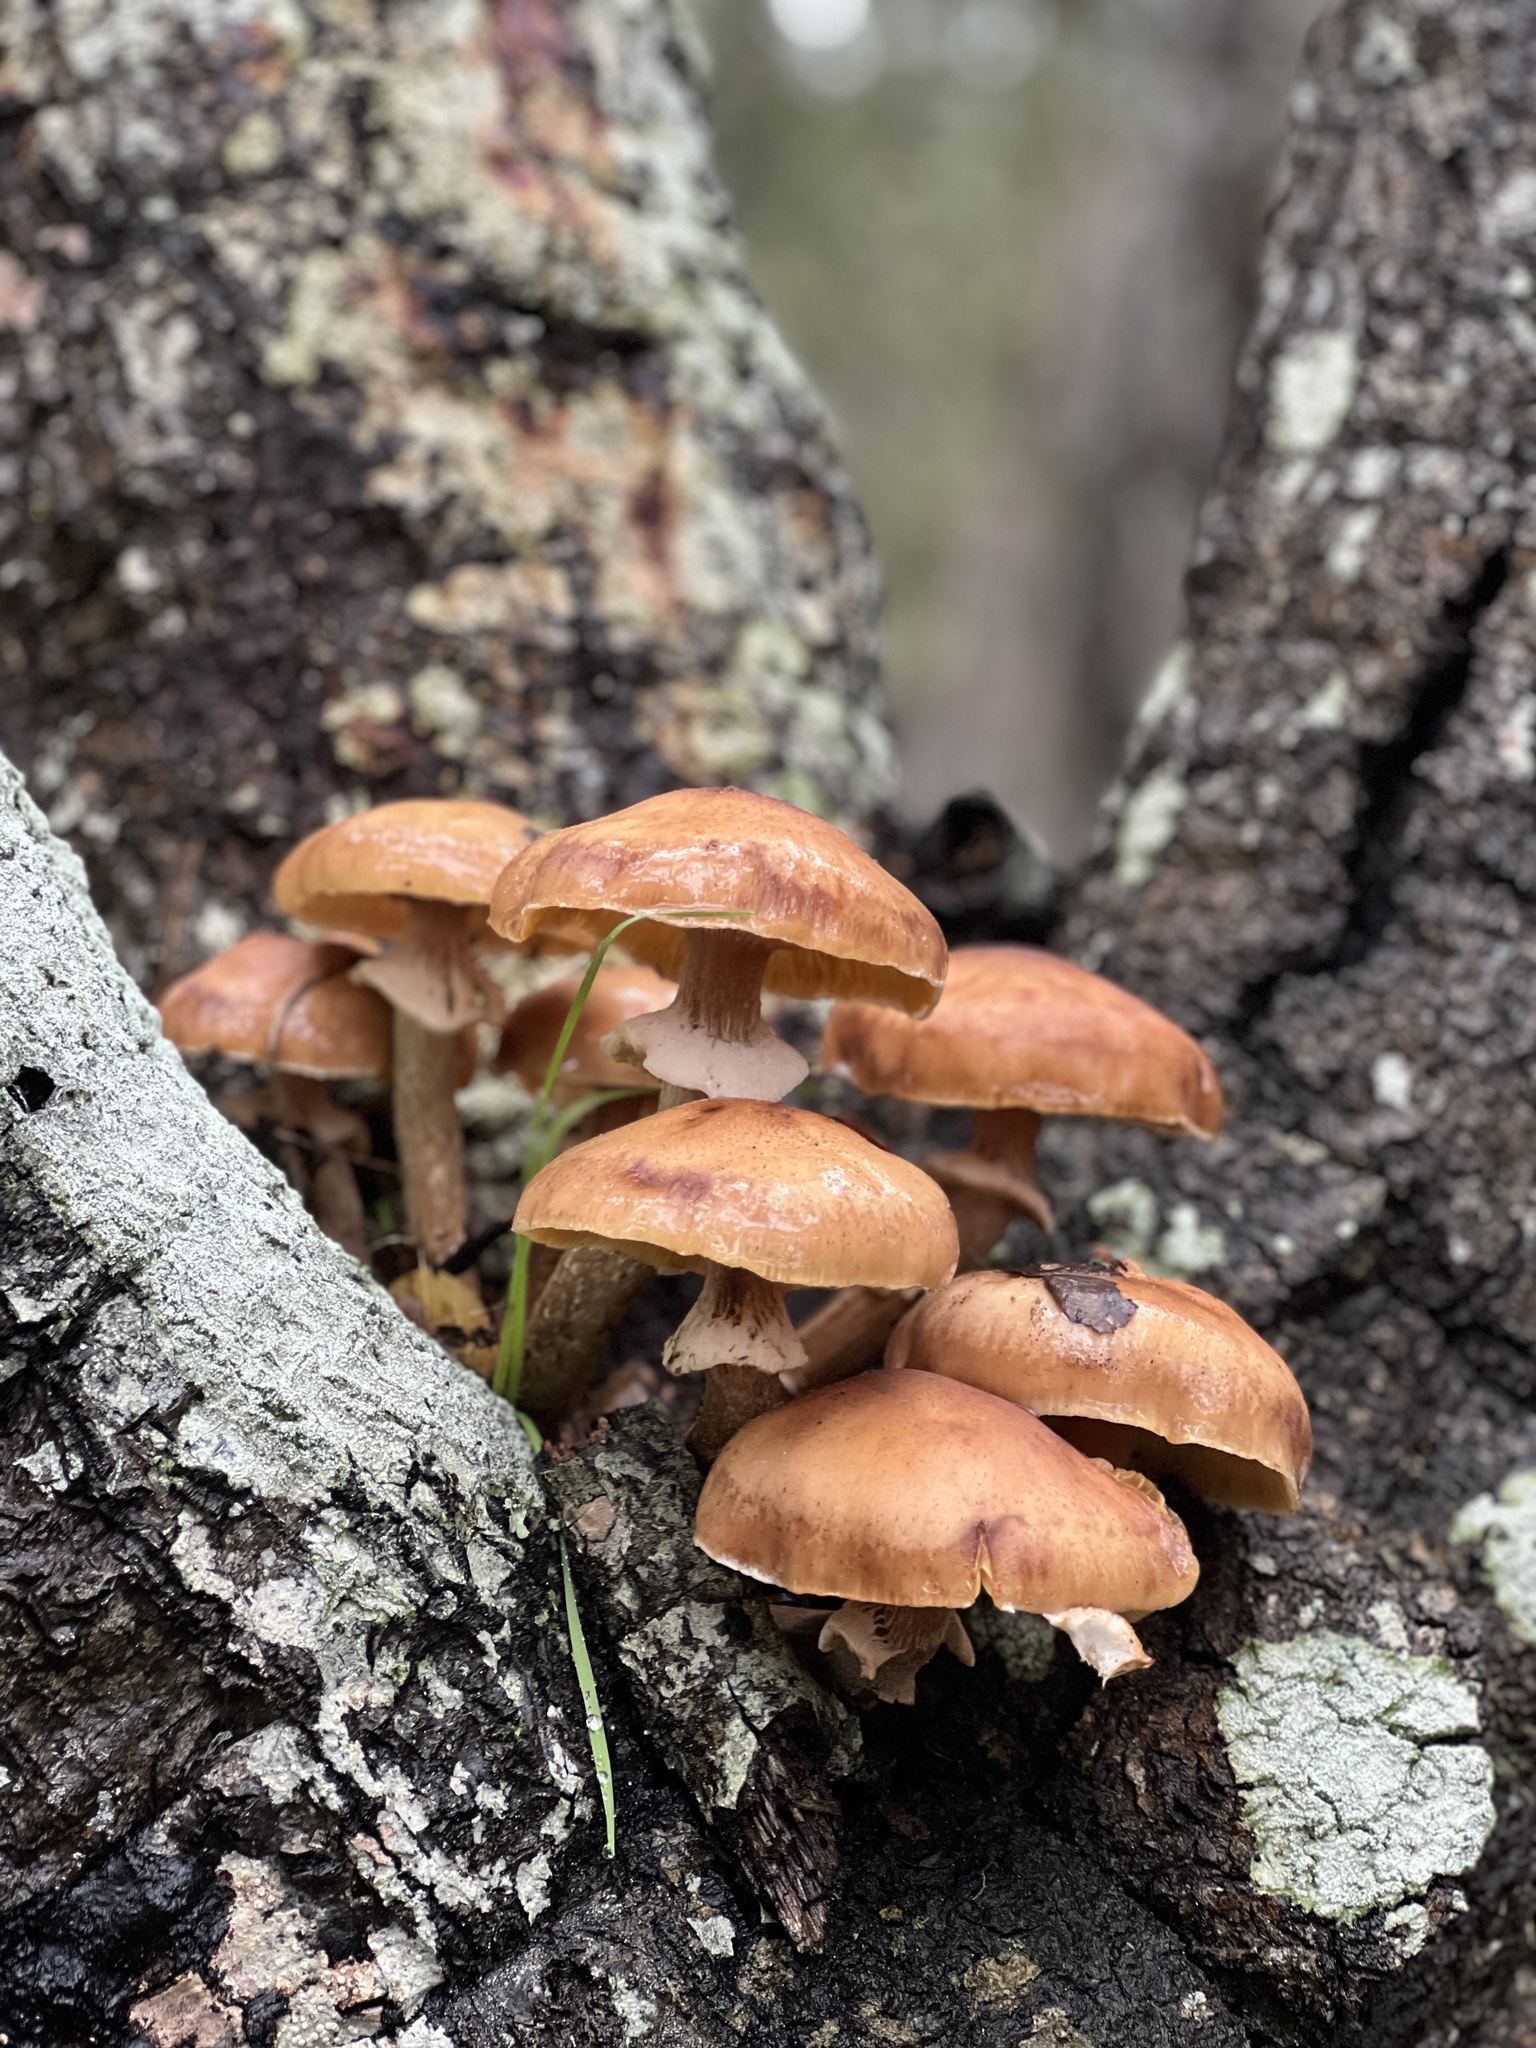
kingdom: Fungi
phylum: Basidiomycota
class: Agaricomycetes
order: Agaricales
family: Physalacriaceae
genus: Armillaria
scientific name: Armillaria mellea
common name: Honey fungus
